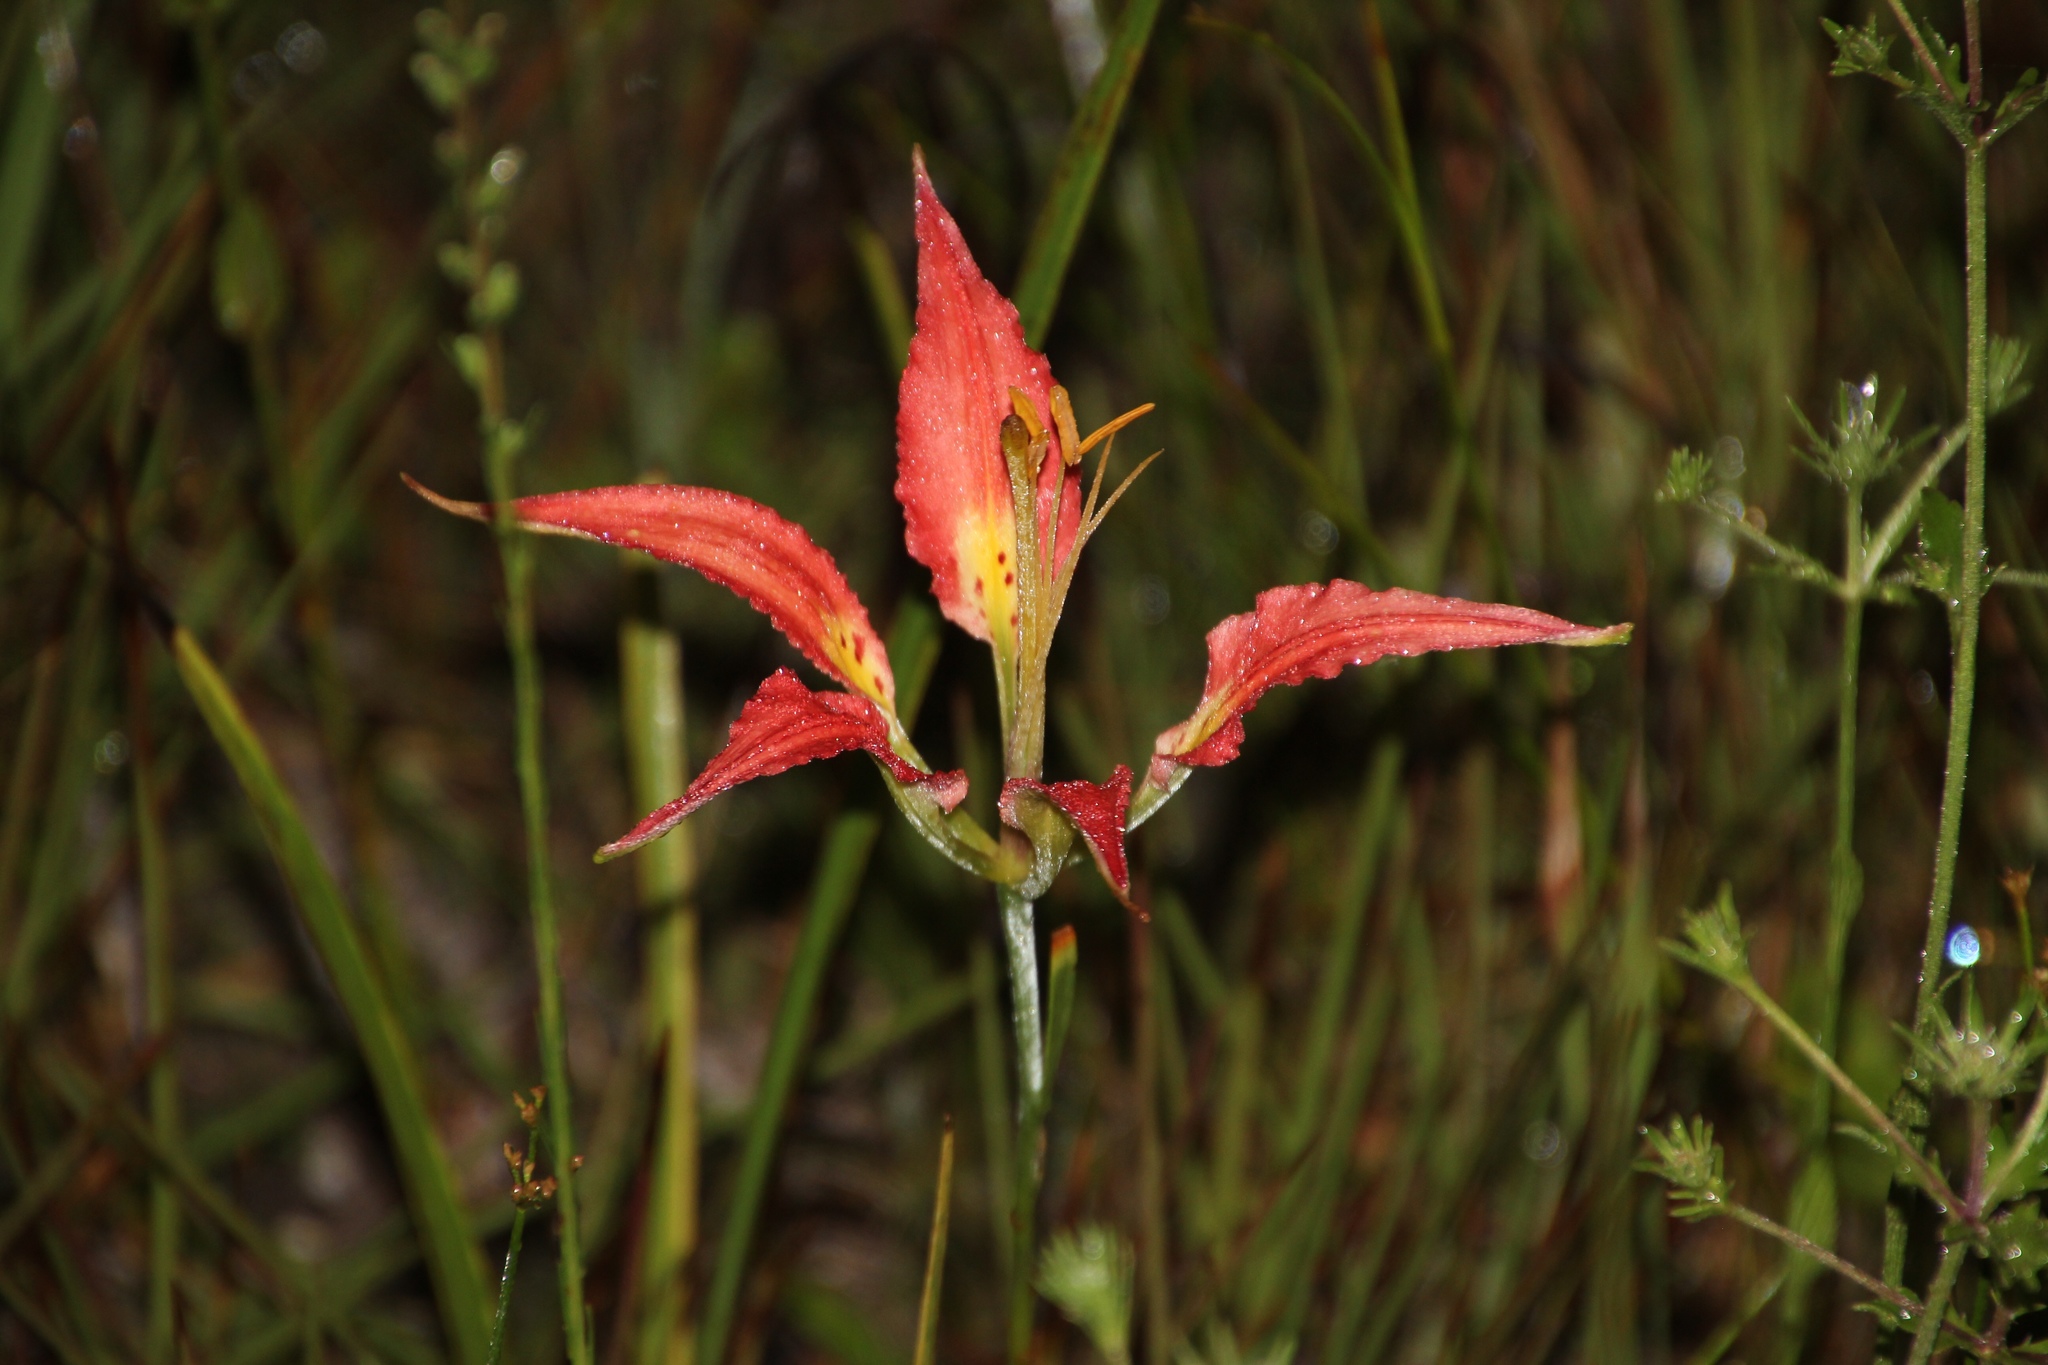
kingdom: Plantae
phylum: Tracheophyta
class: Liliopsida
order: Liliales
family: Liliaceae
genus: Lilium
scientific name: Lilium catesbaei
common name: Catesby's lily
